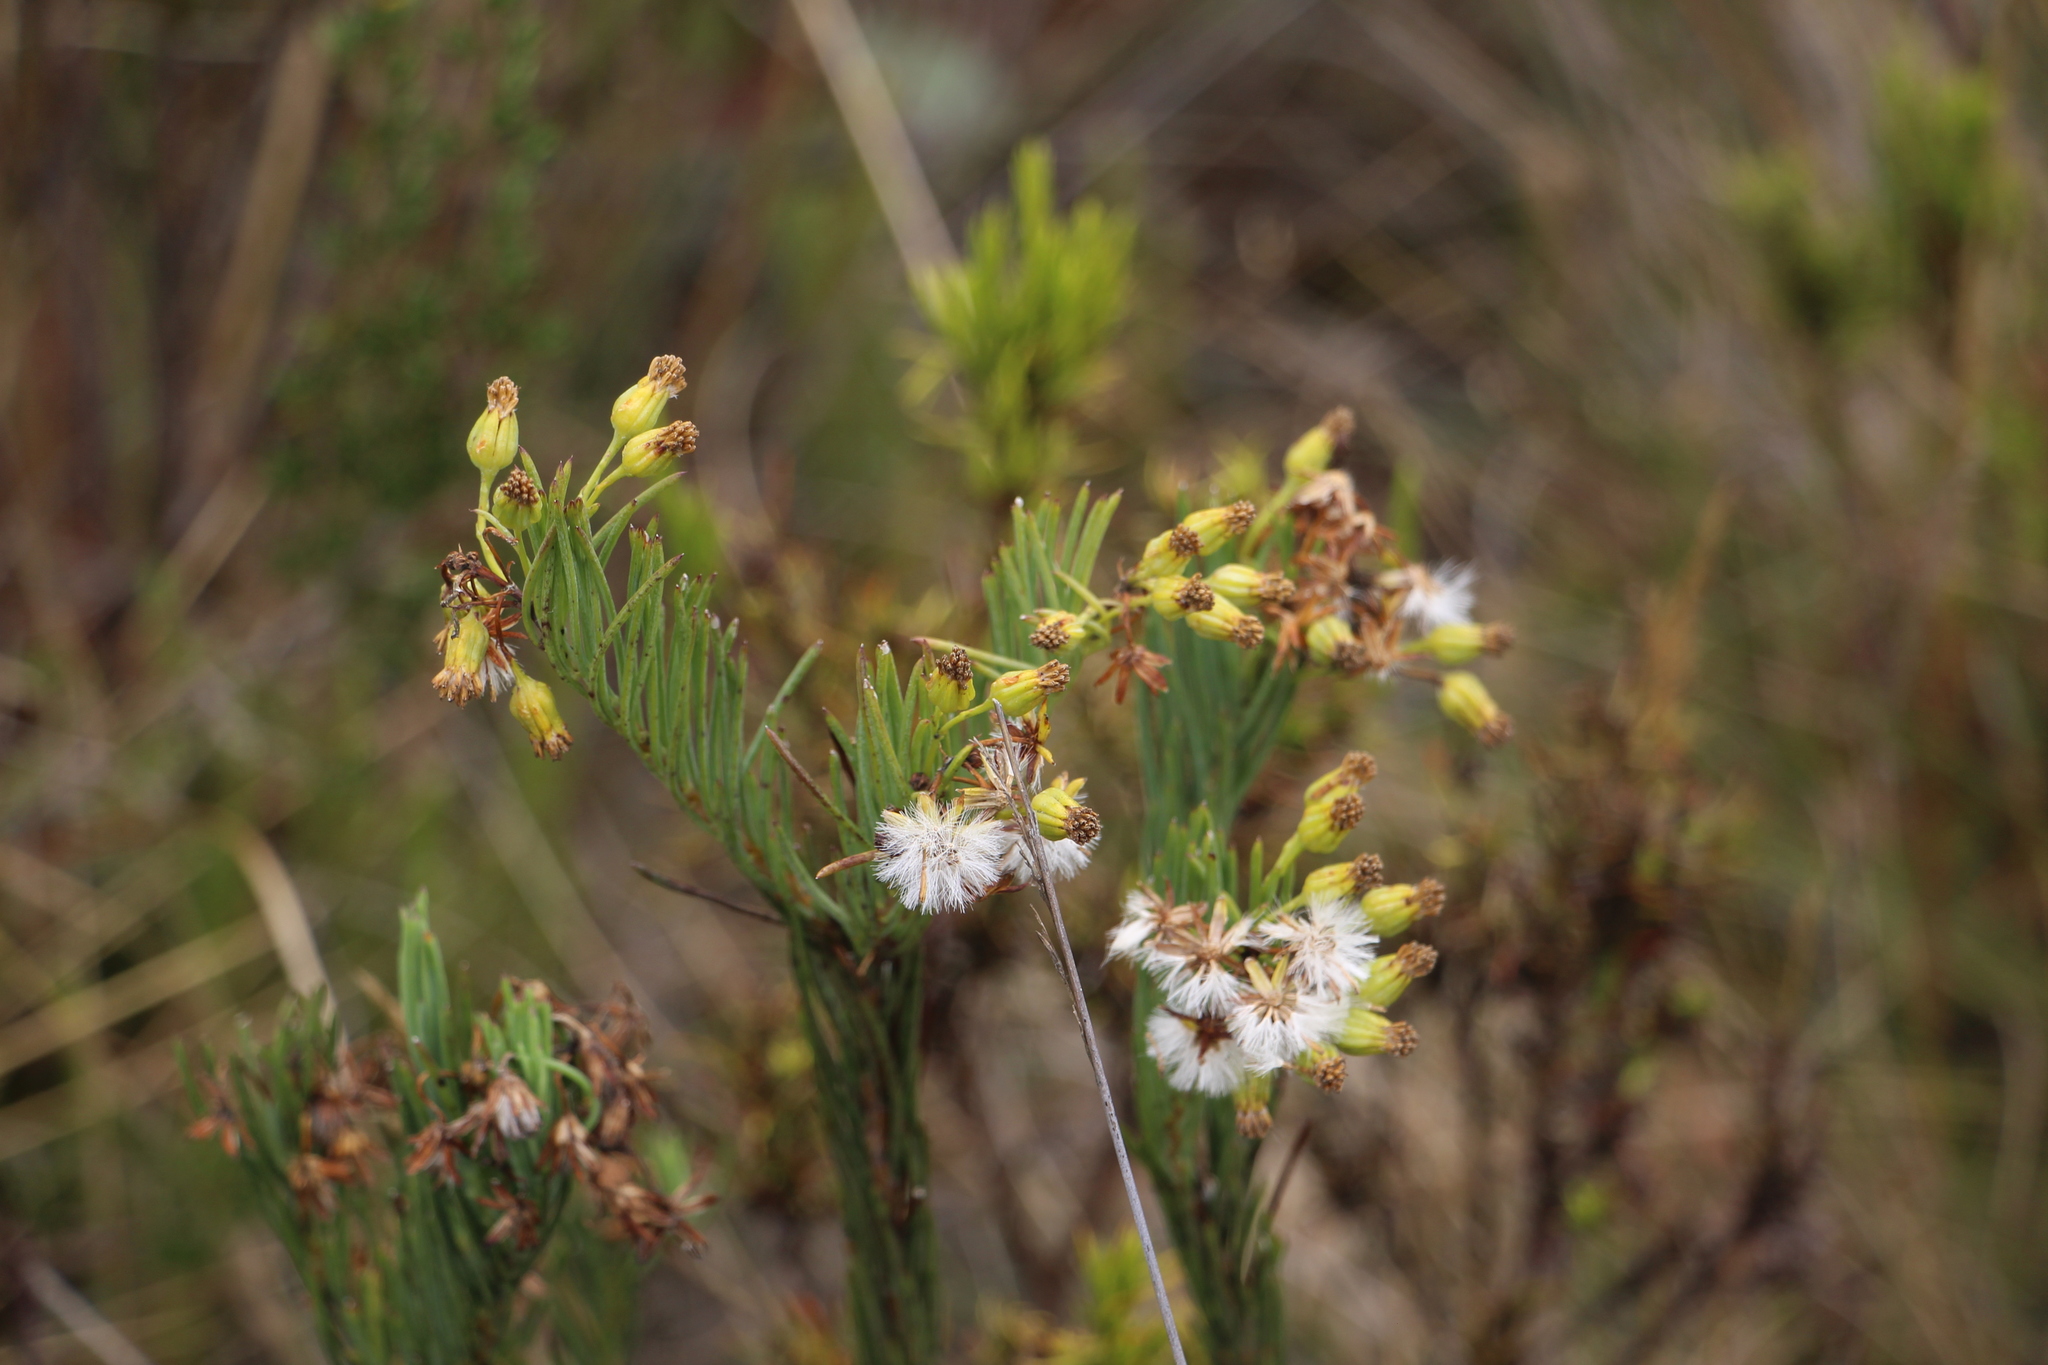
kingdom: Plantae
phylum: Tracheophyta
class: Magnoliopsida
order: Asterales
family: Asteraceae
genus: Monticalia
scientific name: Monticalia abietina
